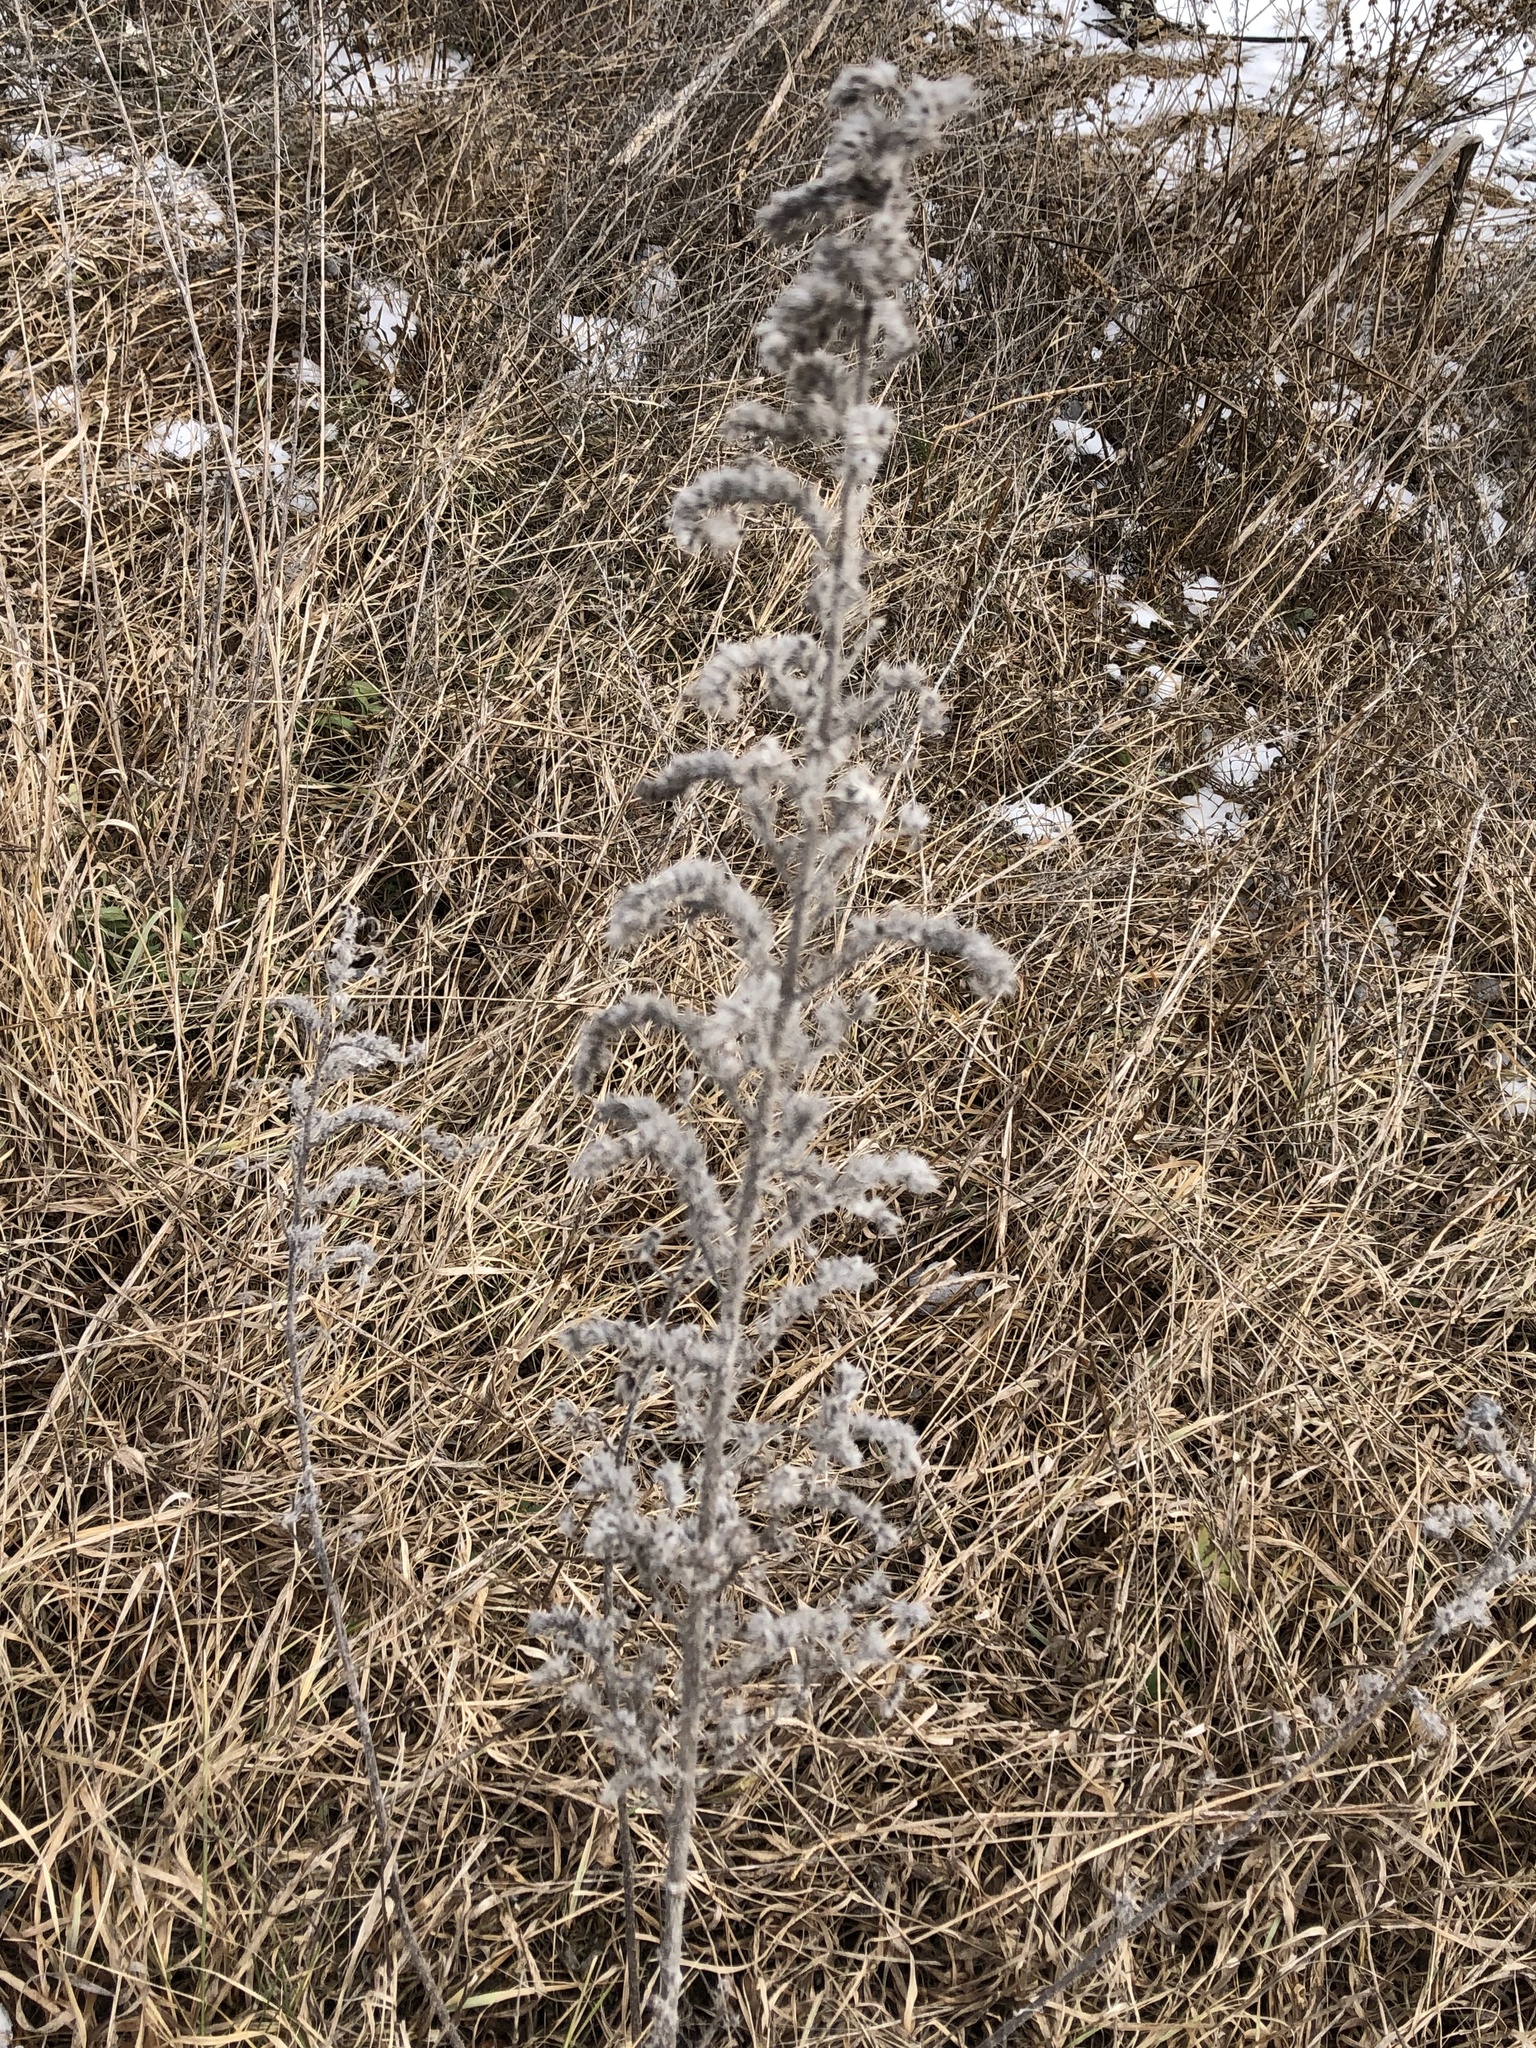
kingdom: Plantae
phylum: Tracheophyta
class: Magnoliopsida
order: Boraginales
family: Boraginaceae
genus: Echium
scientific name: Echium vulgare
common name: Common viper's bugloss
